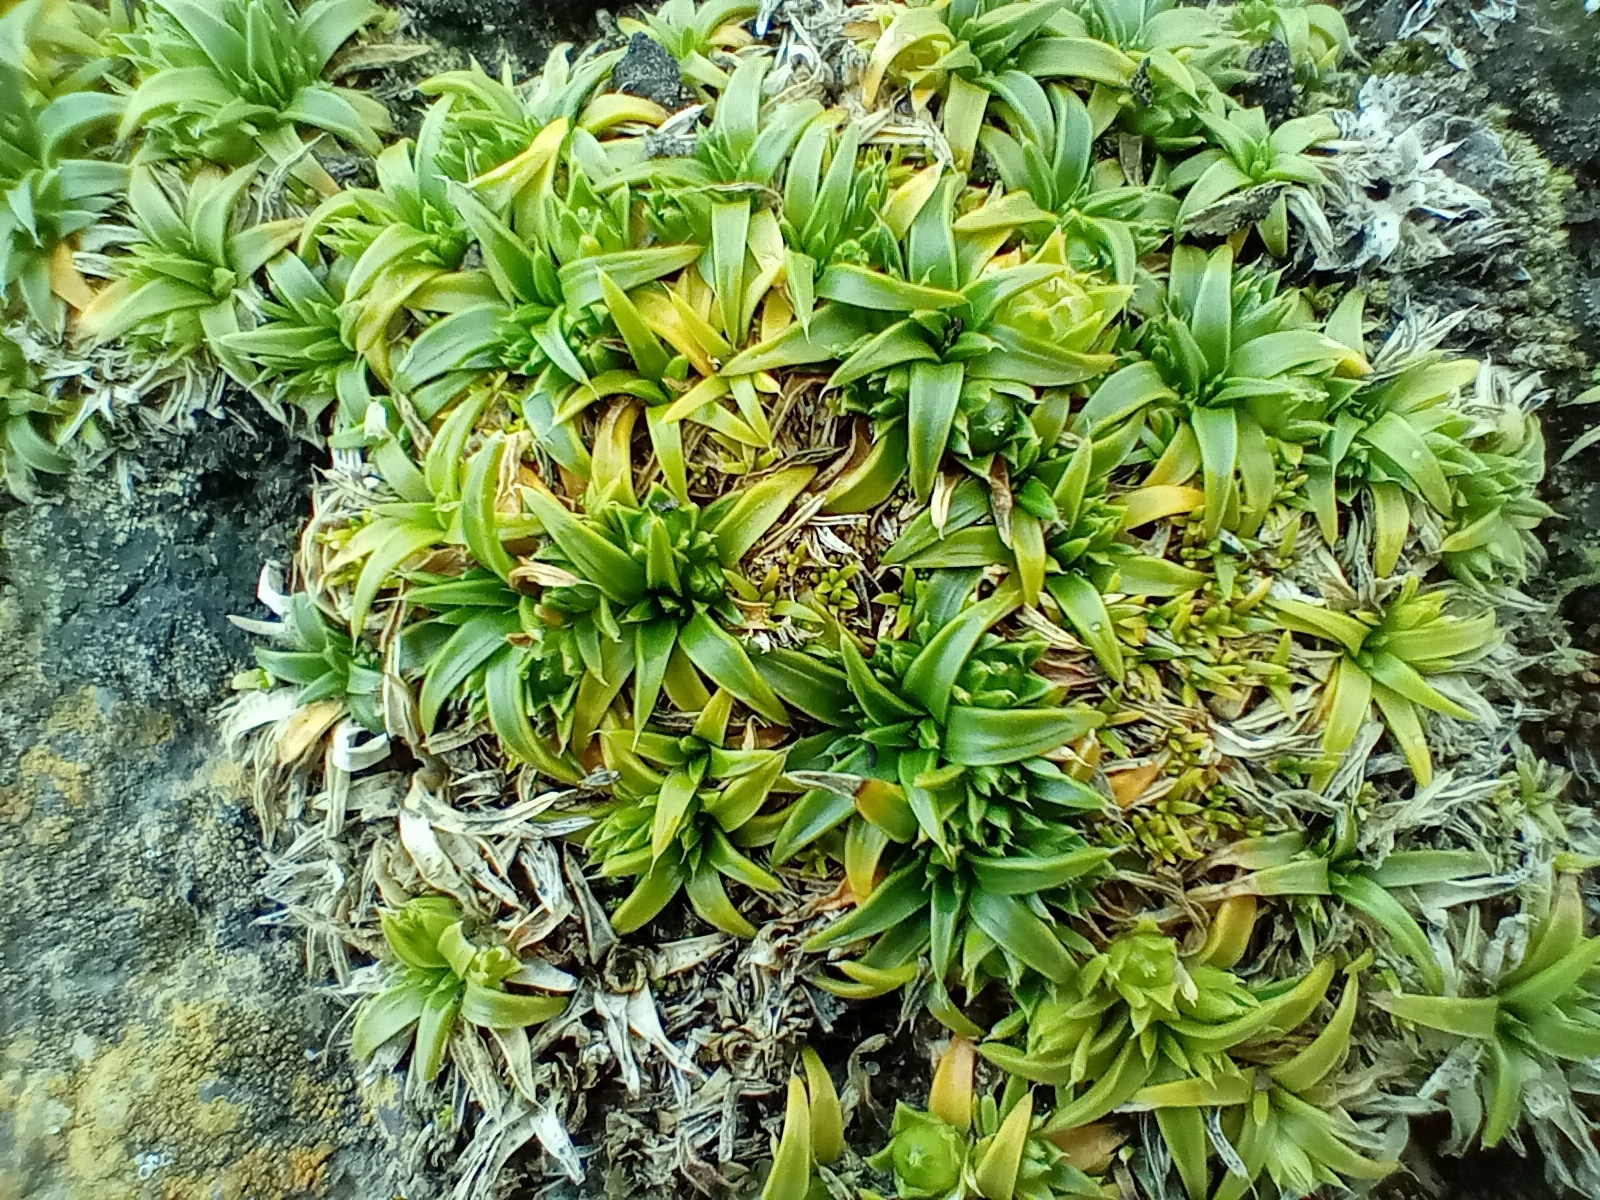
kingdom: Plantae
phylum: Tracheophyta
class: Magnoliopsida
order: Caryophyllales
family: Caryophyllaceae
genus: Colobanthus
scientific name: Colobanthus muelleri
